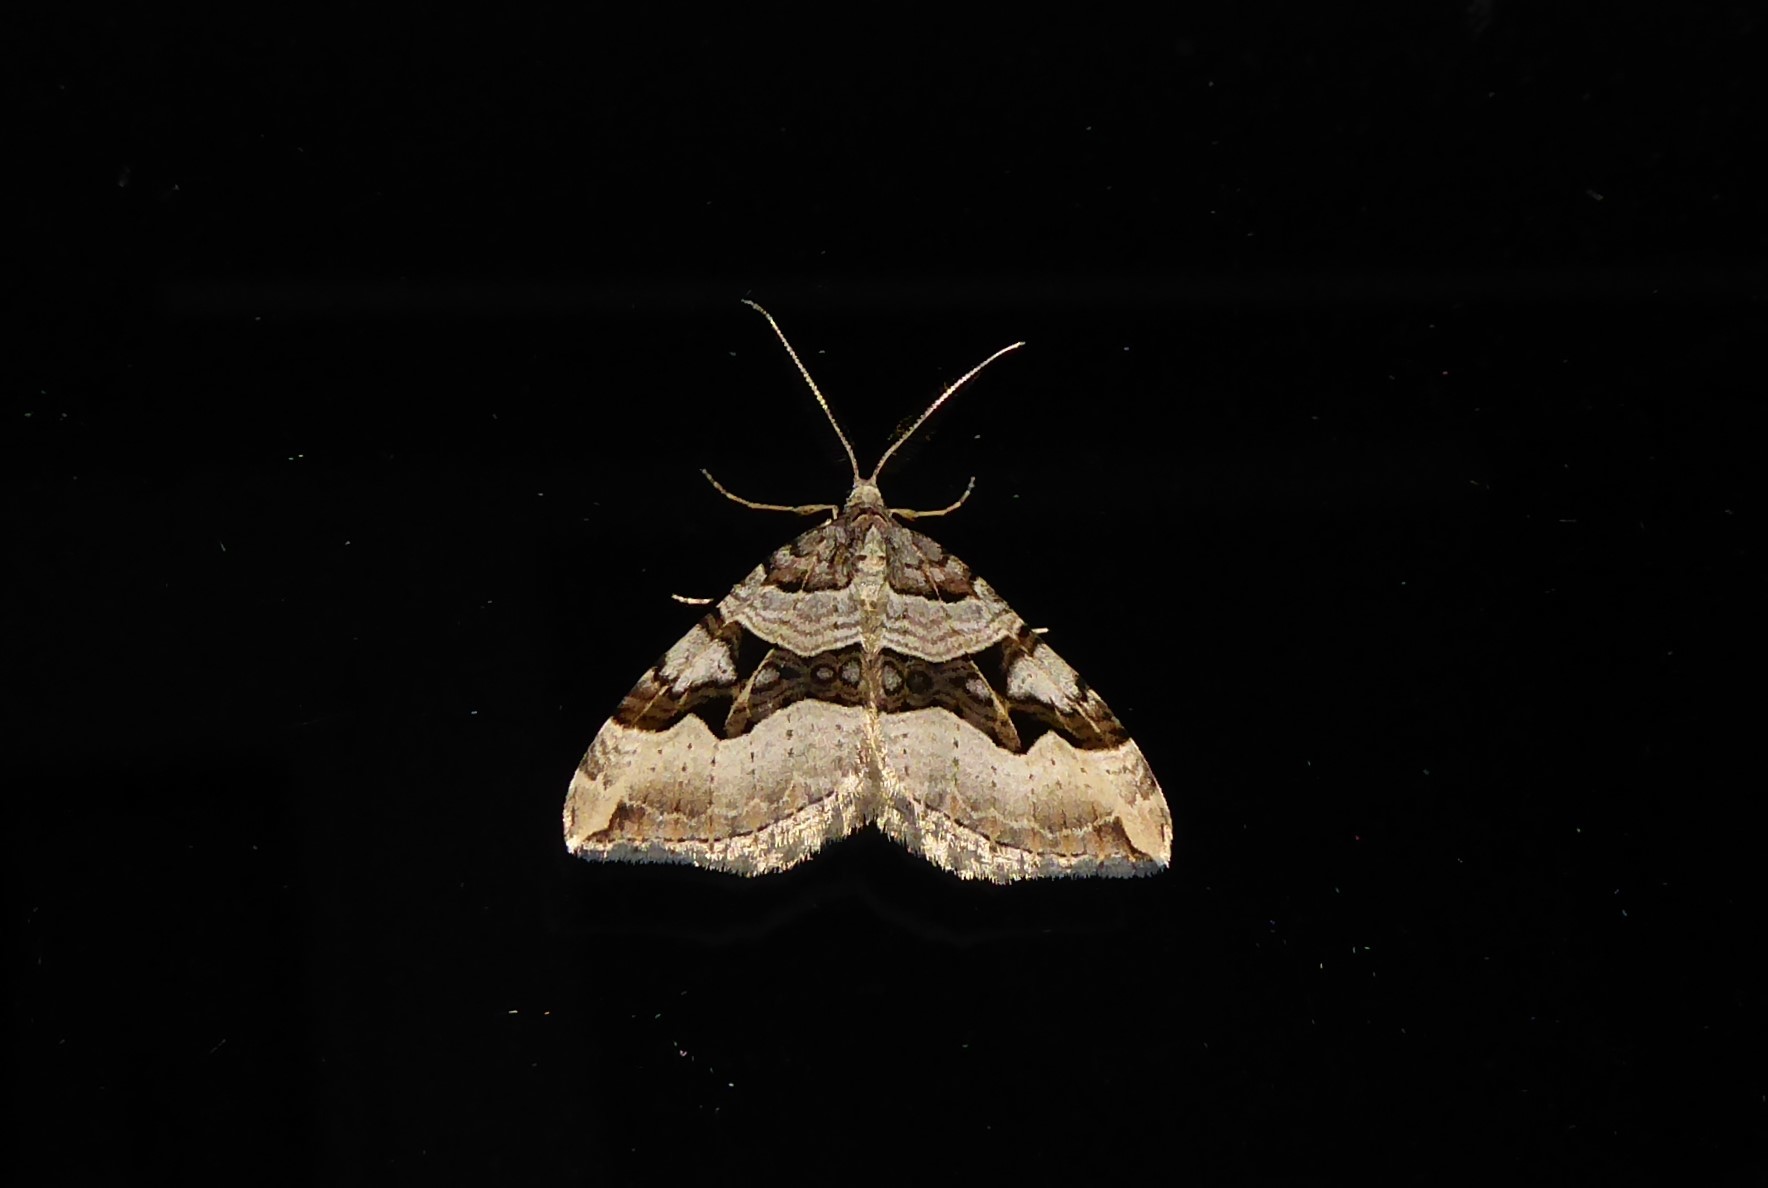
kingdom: Animalia
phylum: Arthropoda
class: Insecta
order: Lepidoptera
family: Geometridae
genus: Xanthorhoe
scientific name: Xanthorhoe semifissata
